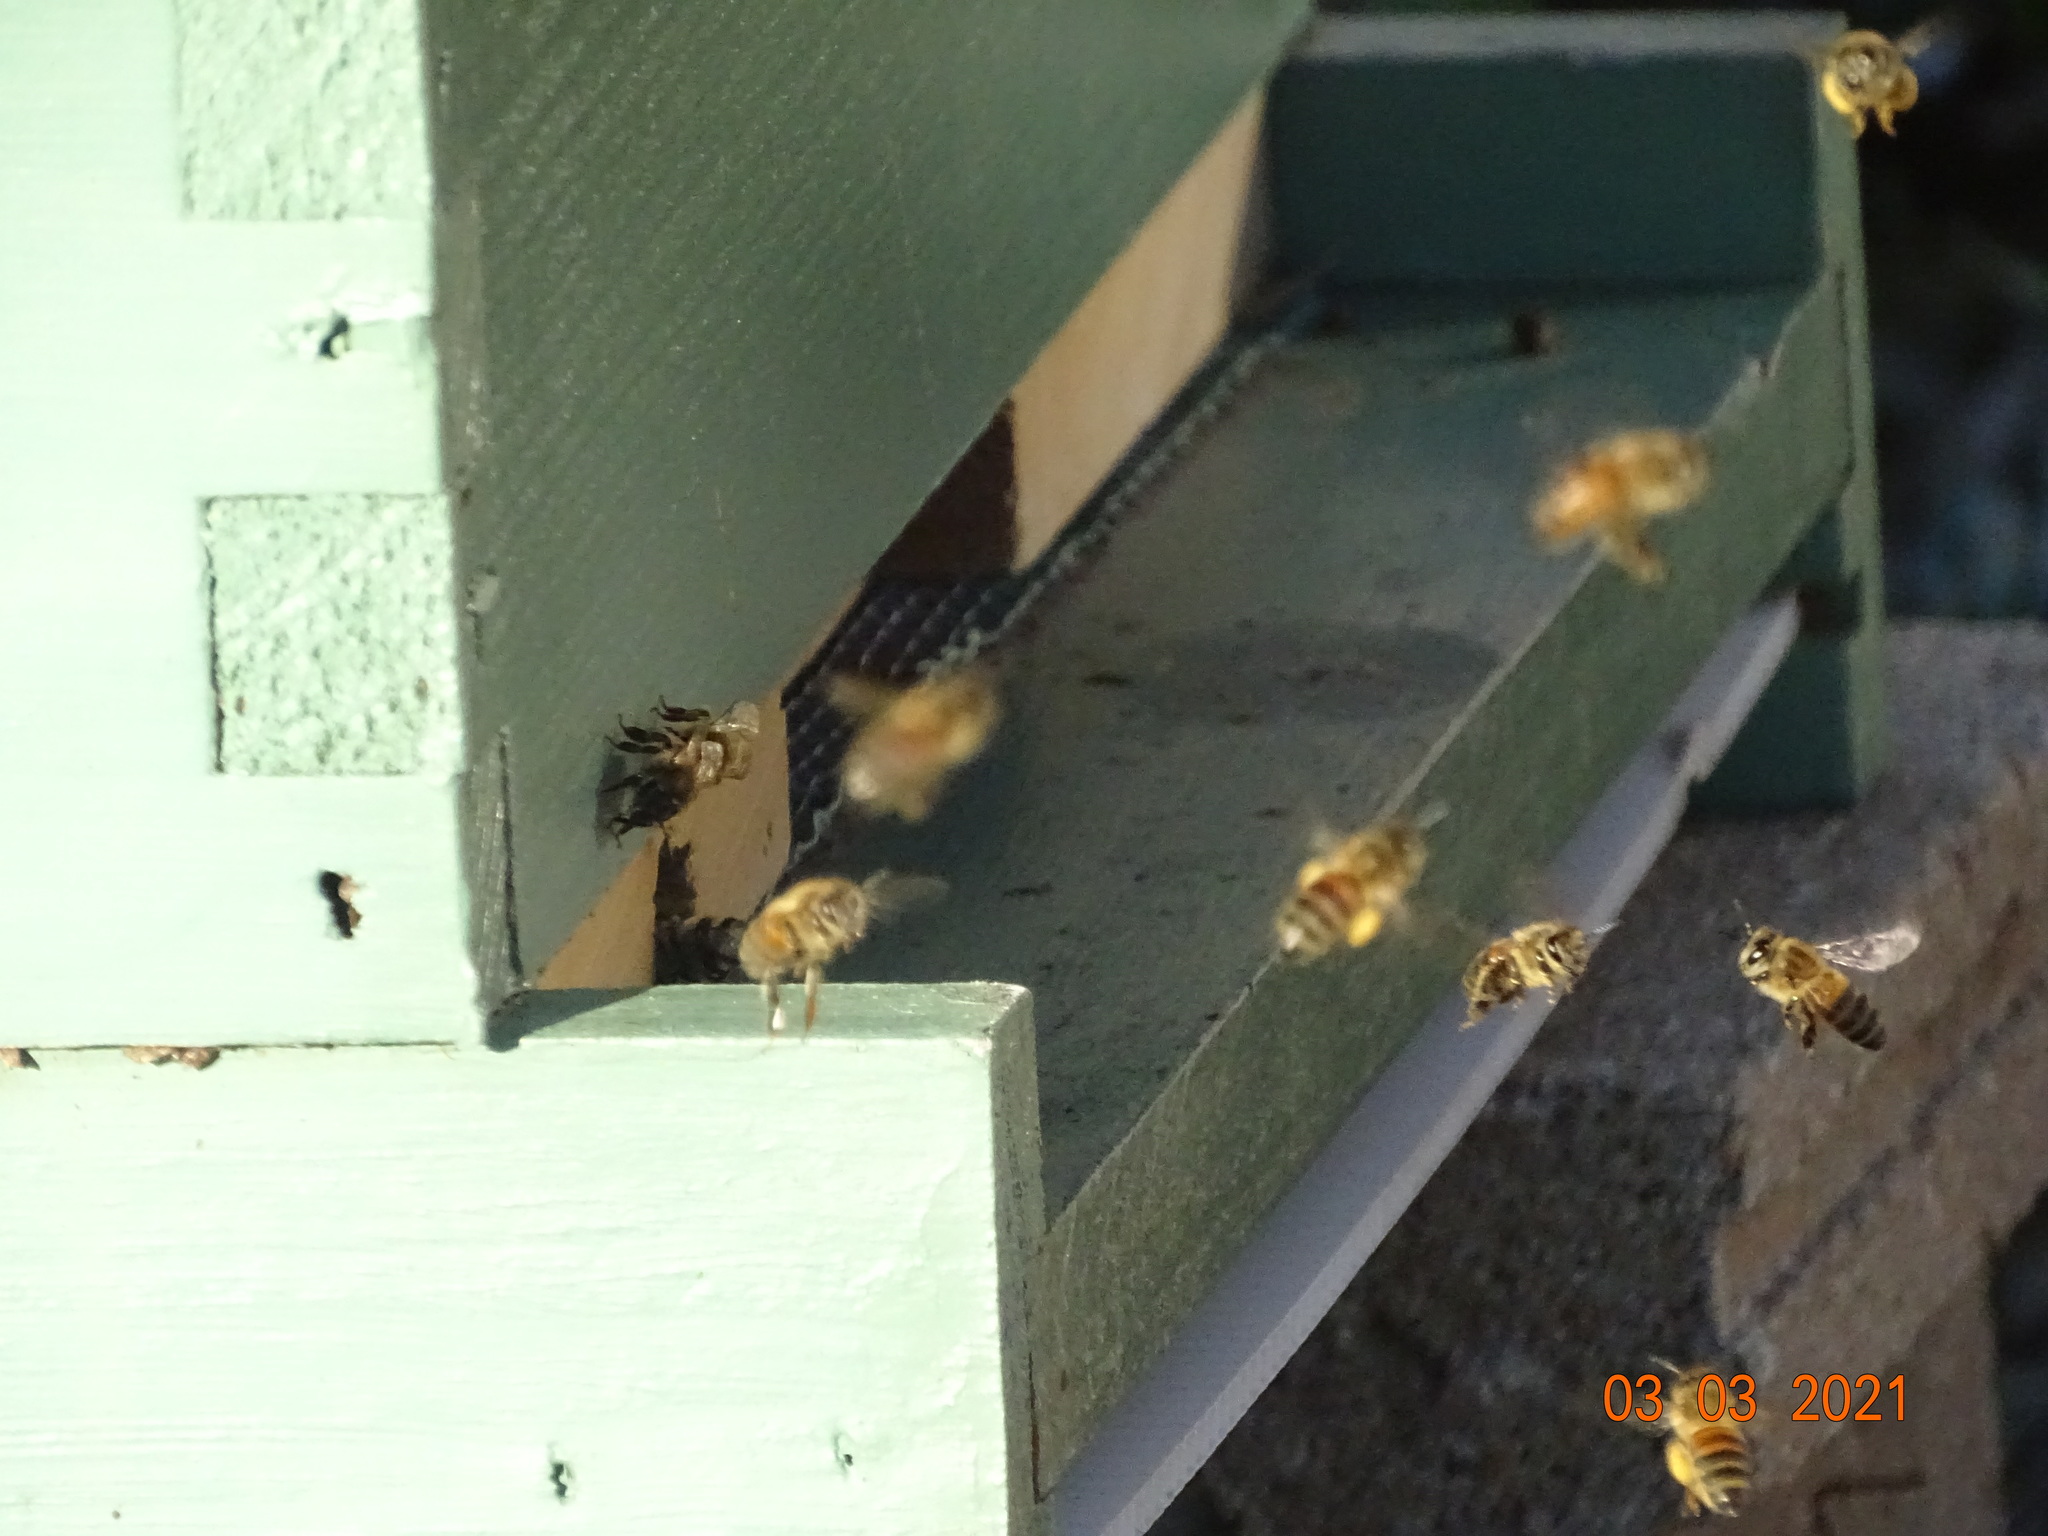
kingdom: Animalia
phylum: Arthropoda
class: Insecta
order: Hymenoptera
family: Apidae
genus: Apis
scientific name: Apis mellifera
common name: Honey bee
